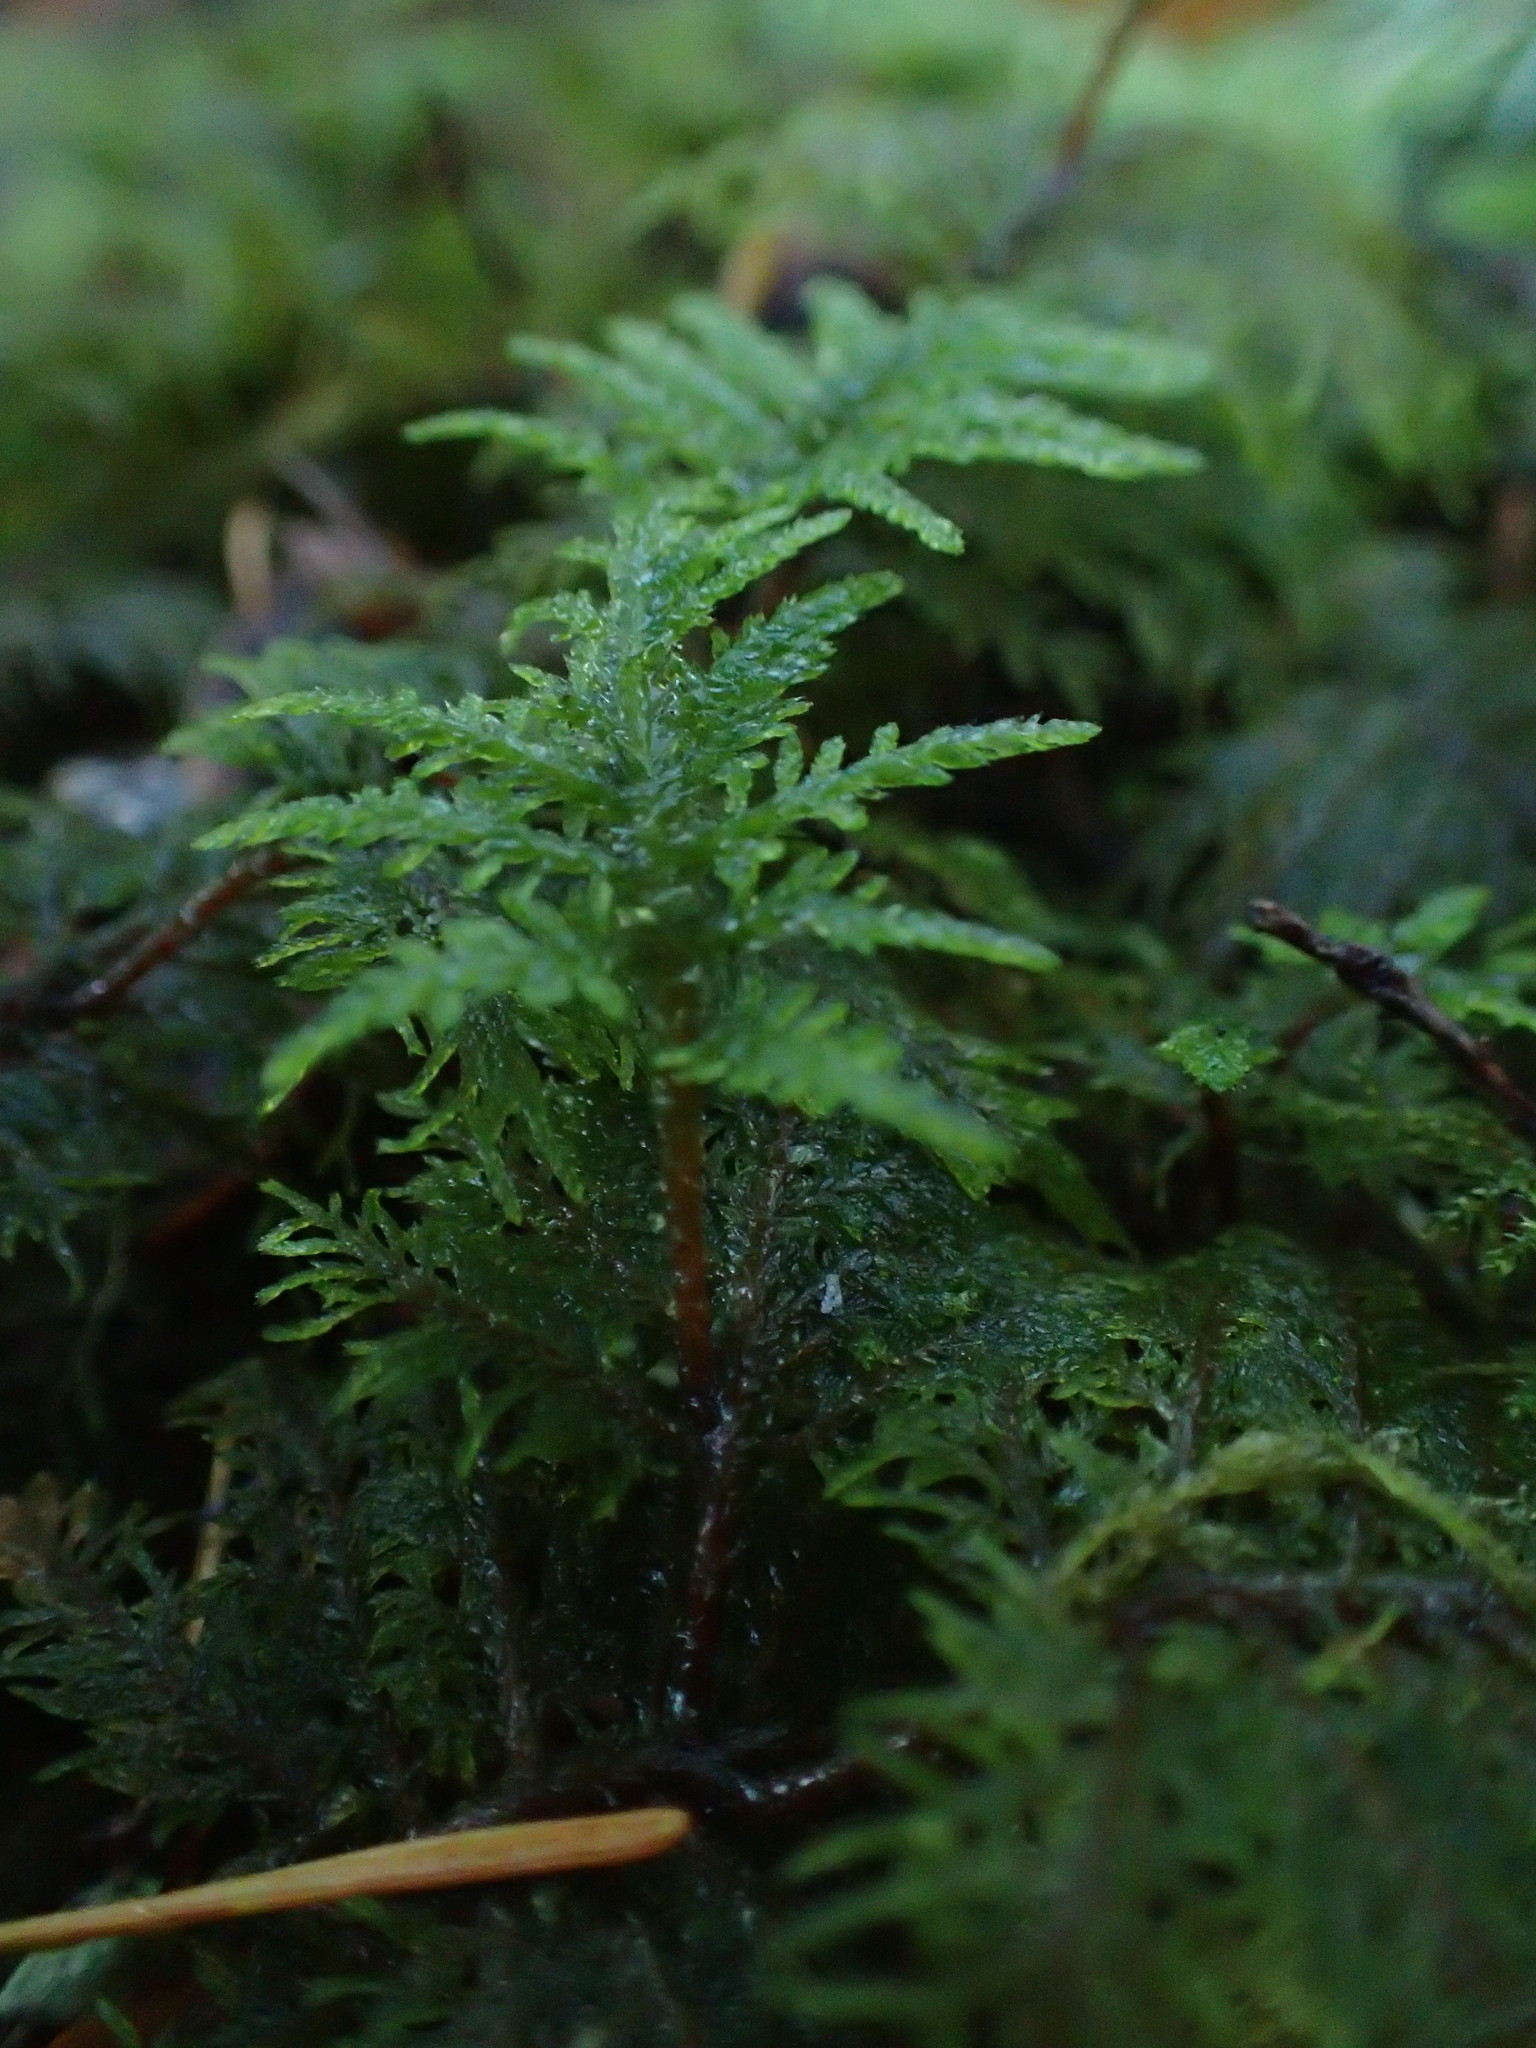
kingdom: Plantae
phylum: Bryophyta
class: Bryopsida
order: Hypnales
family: Hylocomiaceae
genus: Hylocomium
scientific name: Hylocomium splendens
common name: Stairstep moss
